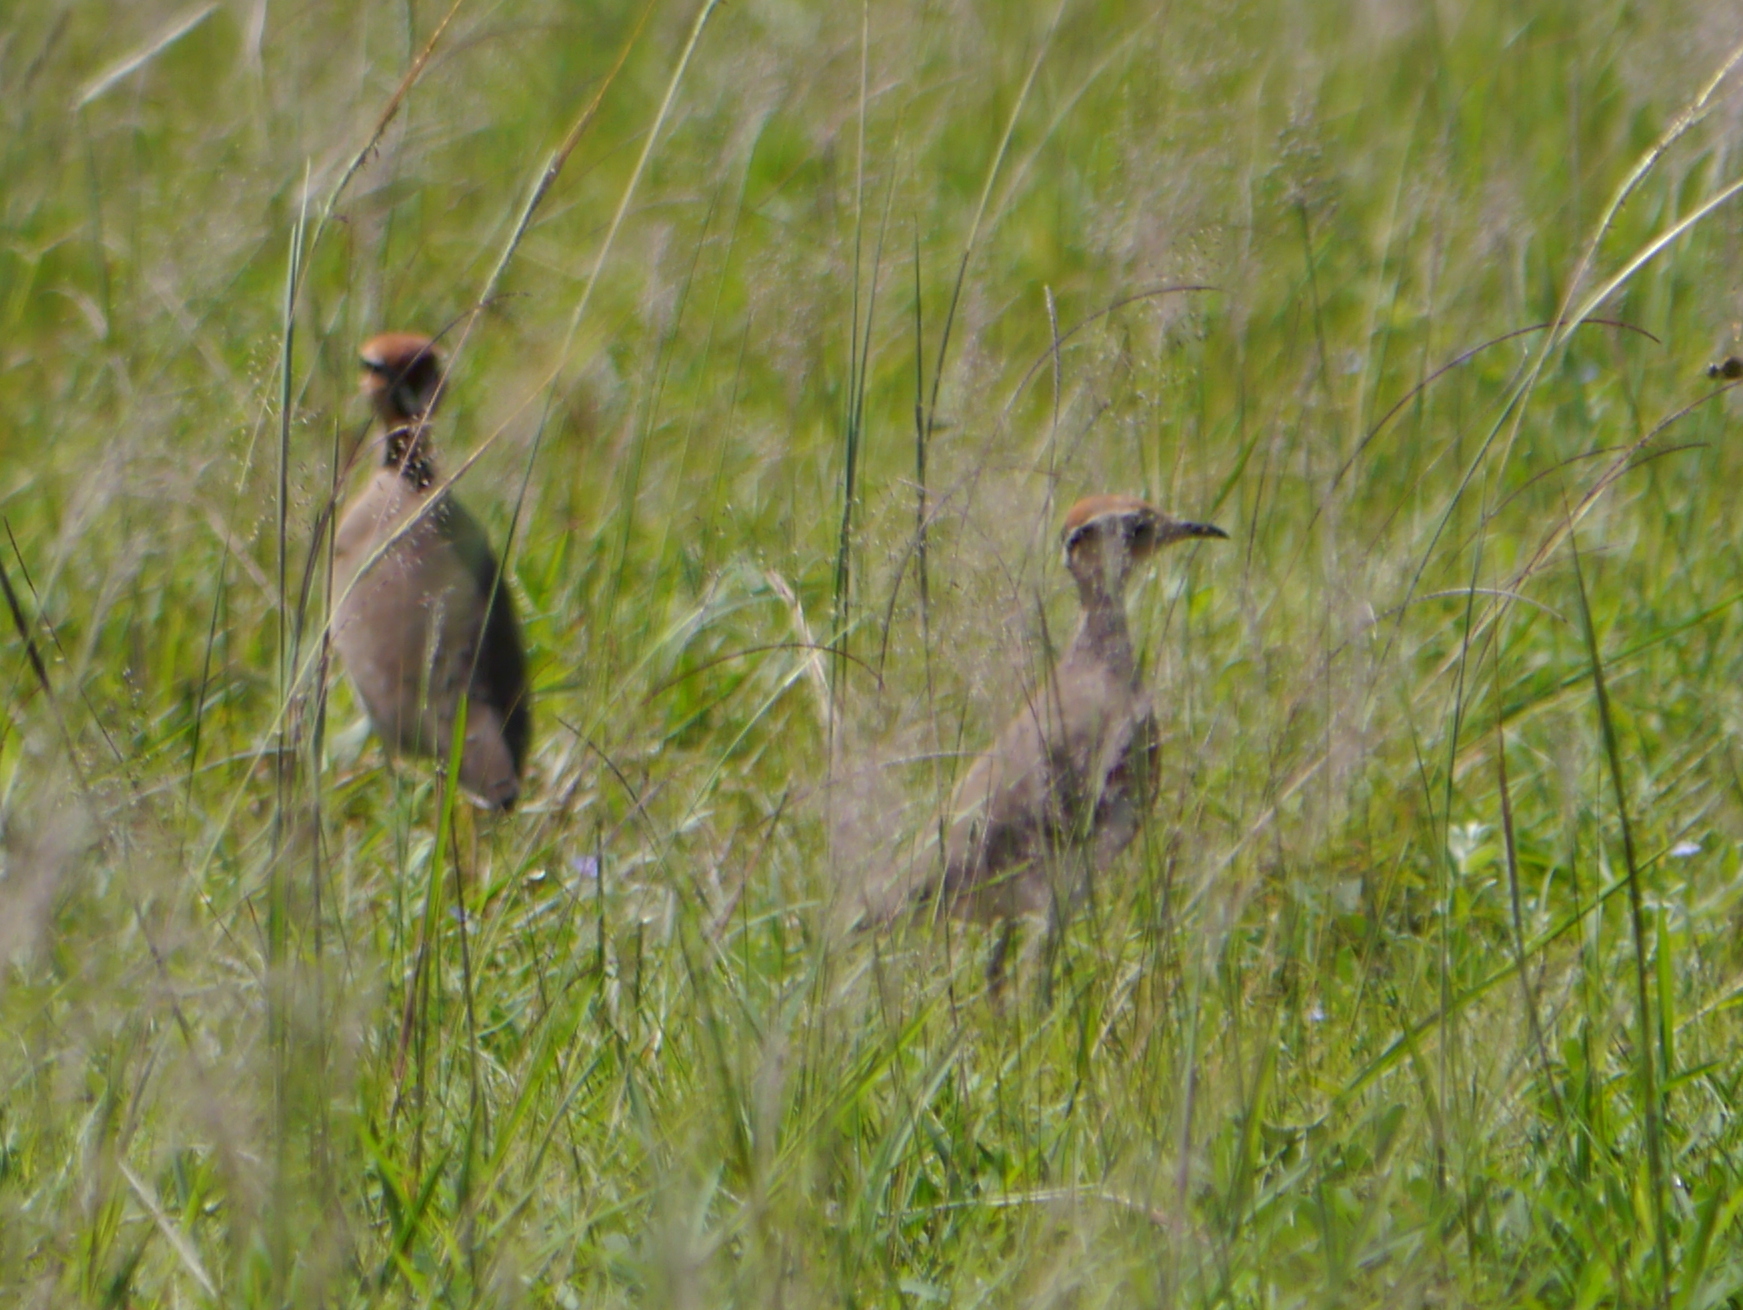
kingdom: Animalia
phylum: Chordata
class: Aves
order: Charadriiformes
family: Glareolidae
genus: Cursorius
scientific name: Cursorius temminckii
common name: Temminck's courser
